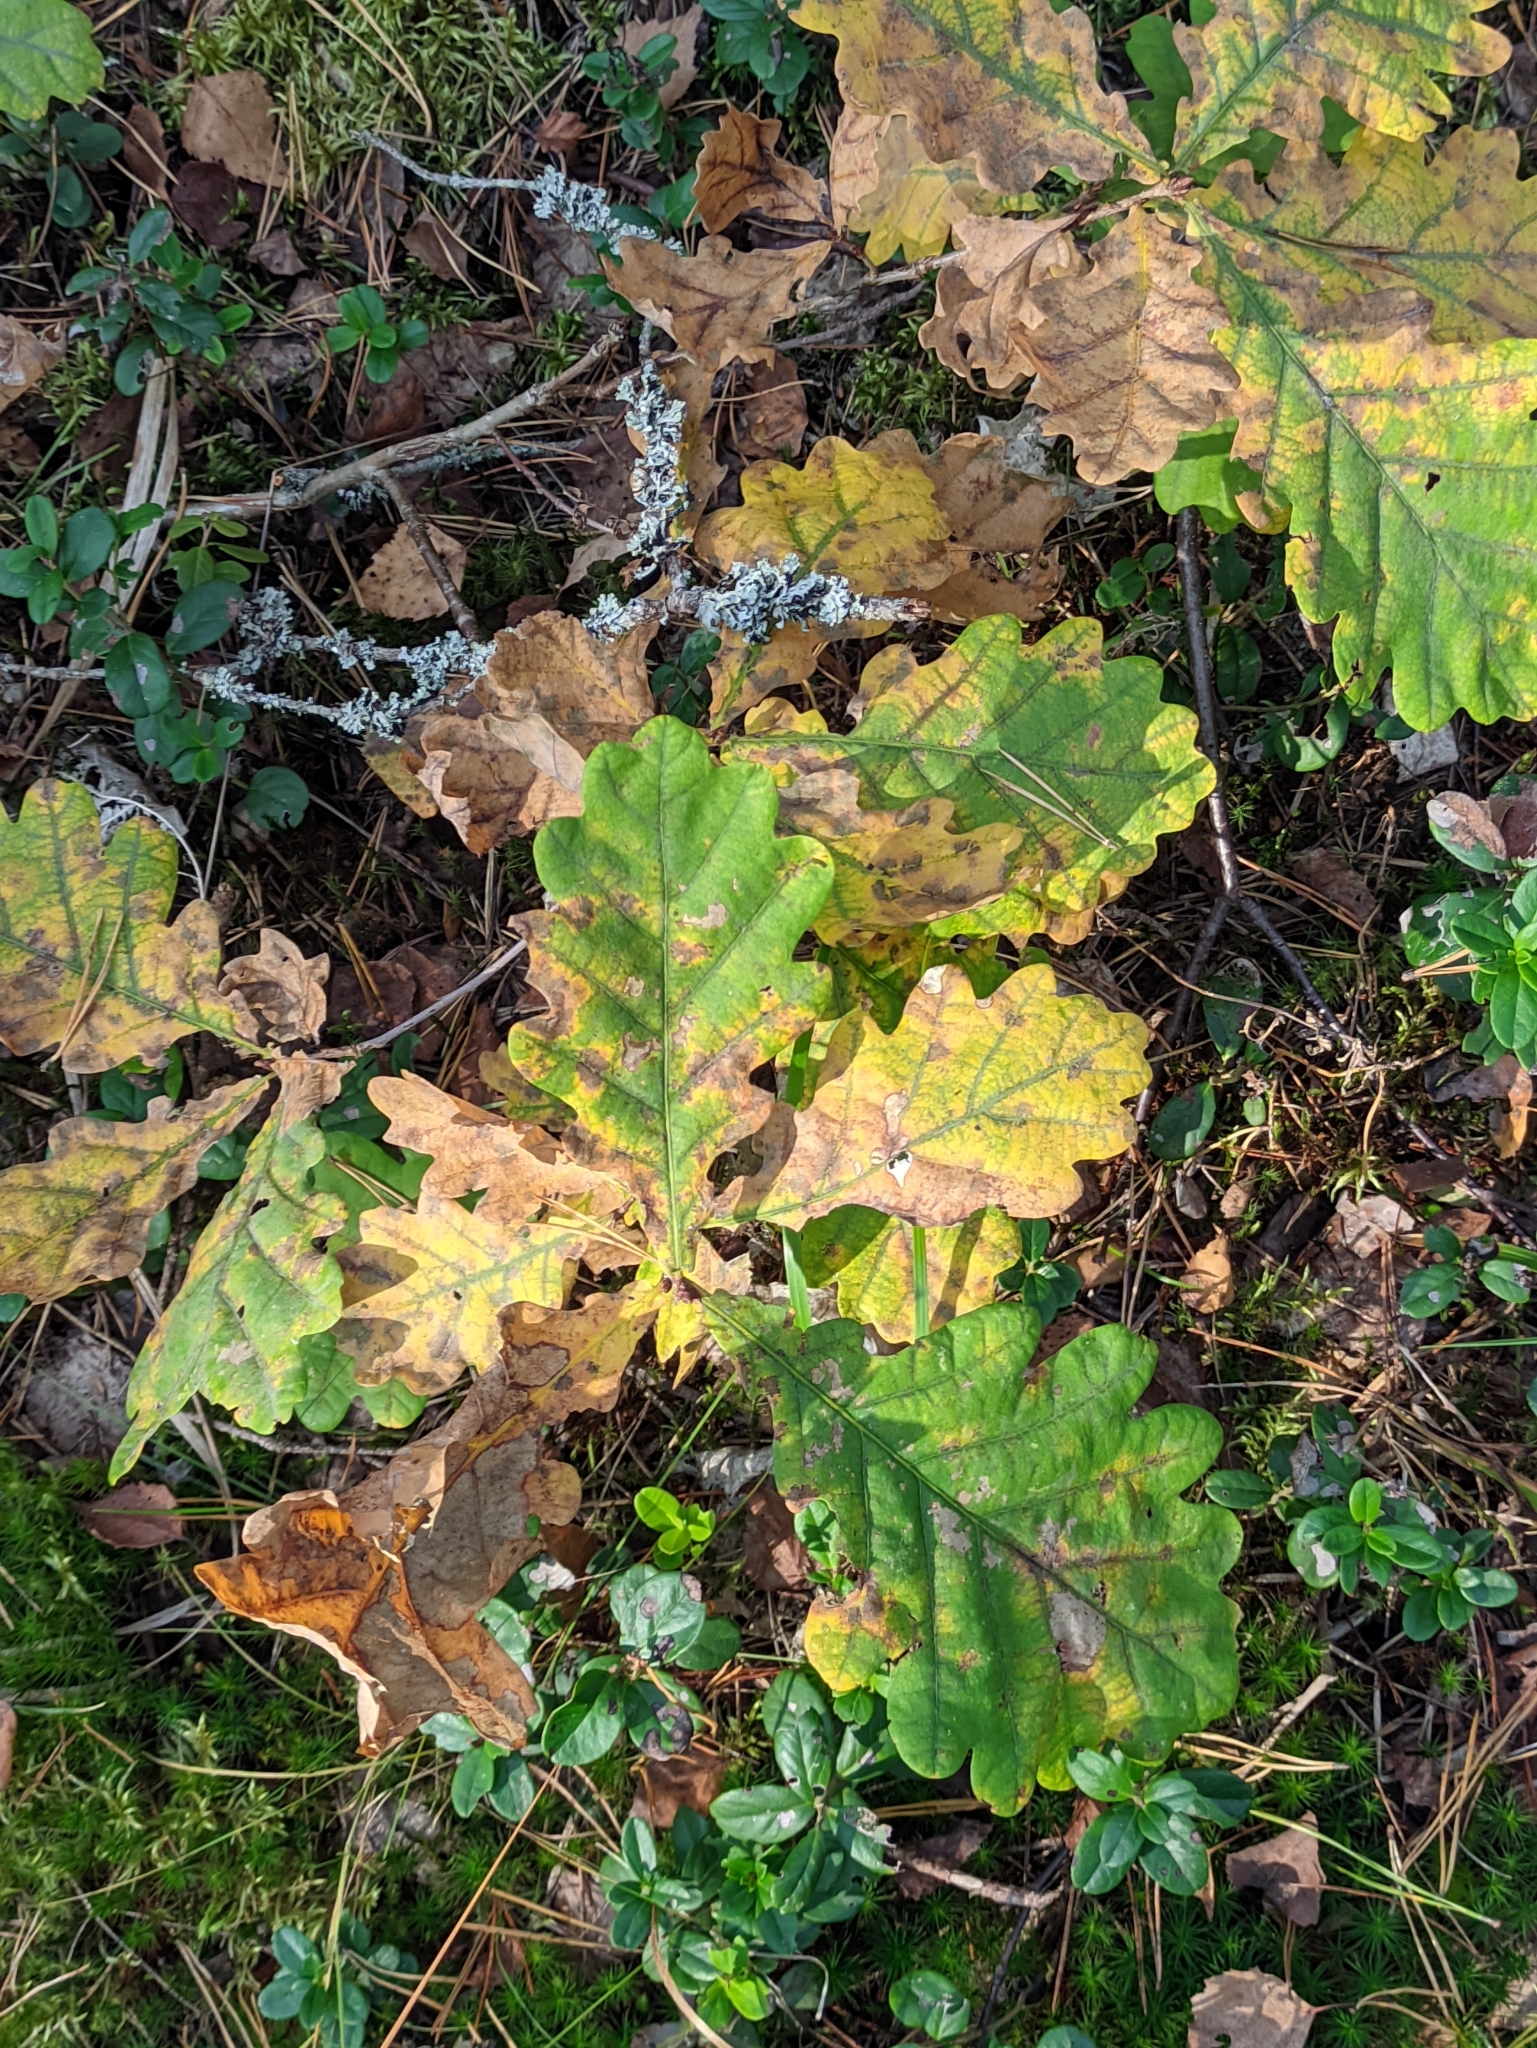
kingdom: Plantae
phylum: Tracheophyta
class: Magnoliopsida
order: Fagales
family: Fagaceae
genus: Quercus
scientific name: Quercus robur
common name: Pedunculate oak
